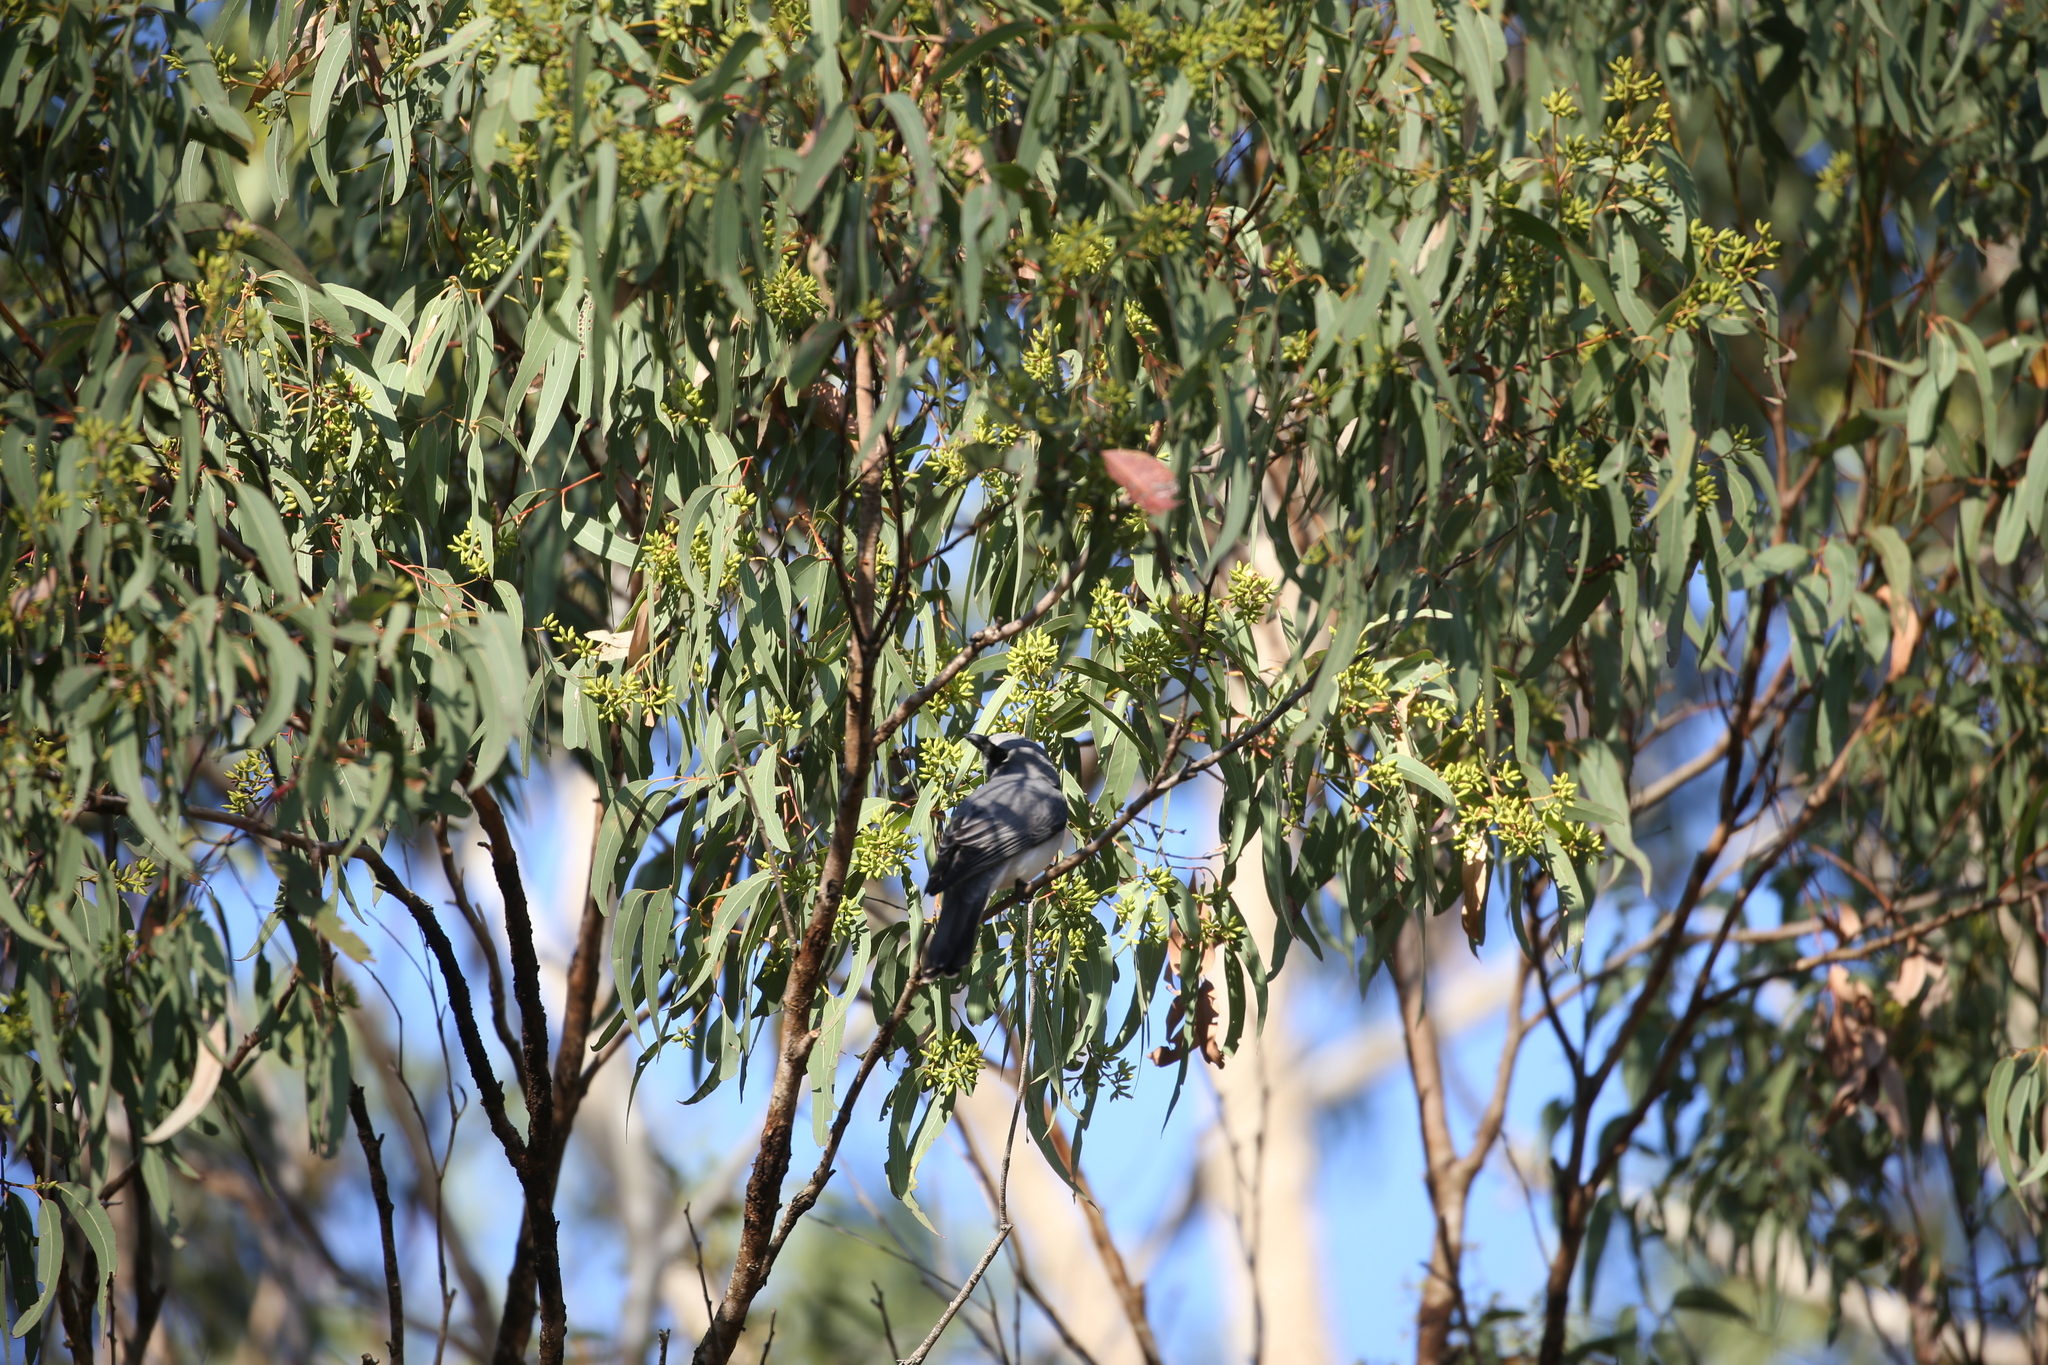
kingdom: Animalia
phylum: Chordata
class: Aves
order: Passeriformes
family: Campephagidae
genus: Coracina
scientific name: Coracina novaehollandiae
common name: Black-faced cuckooshrike
